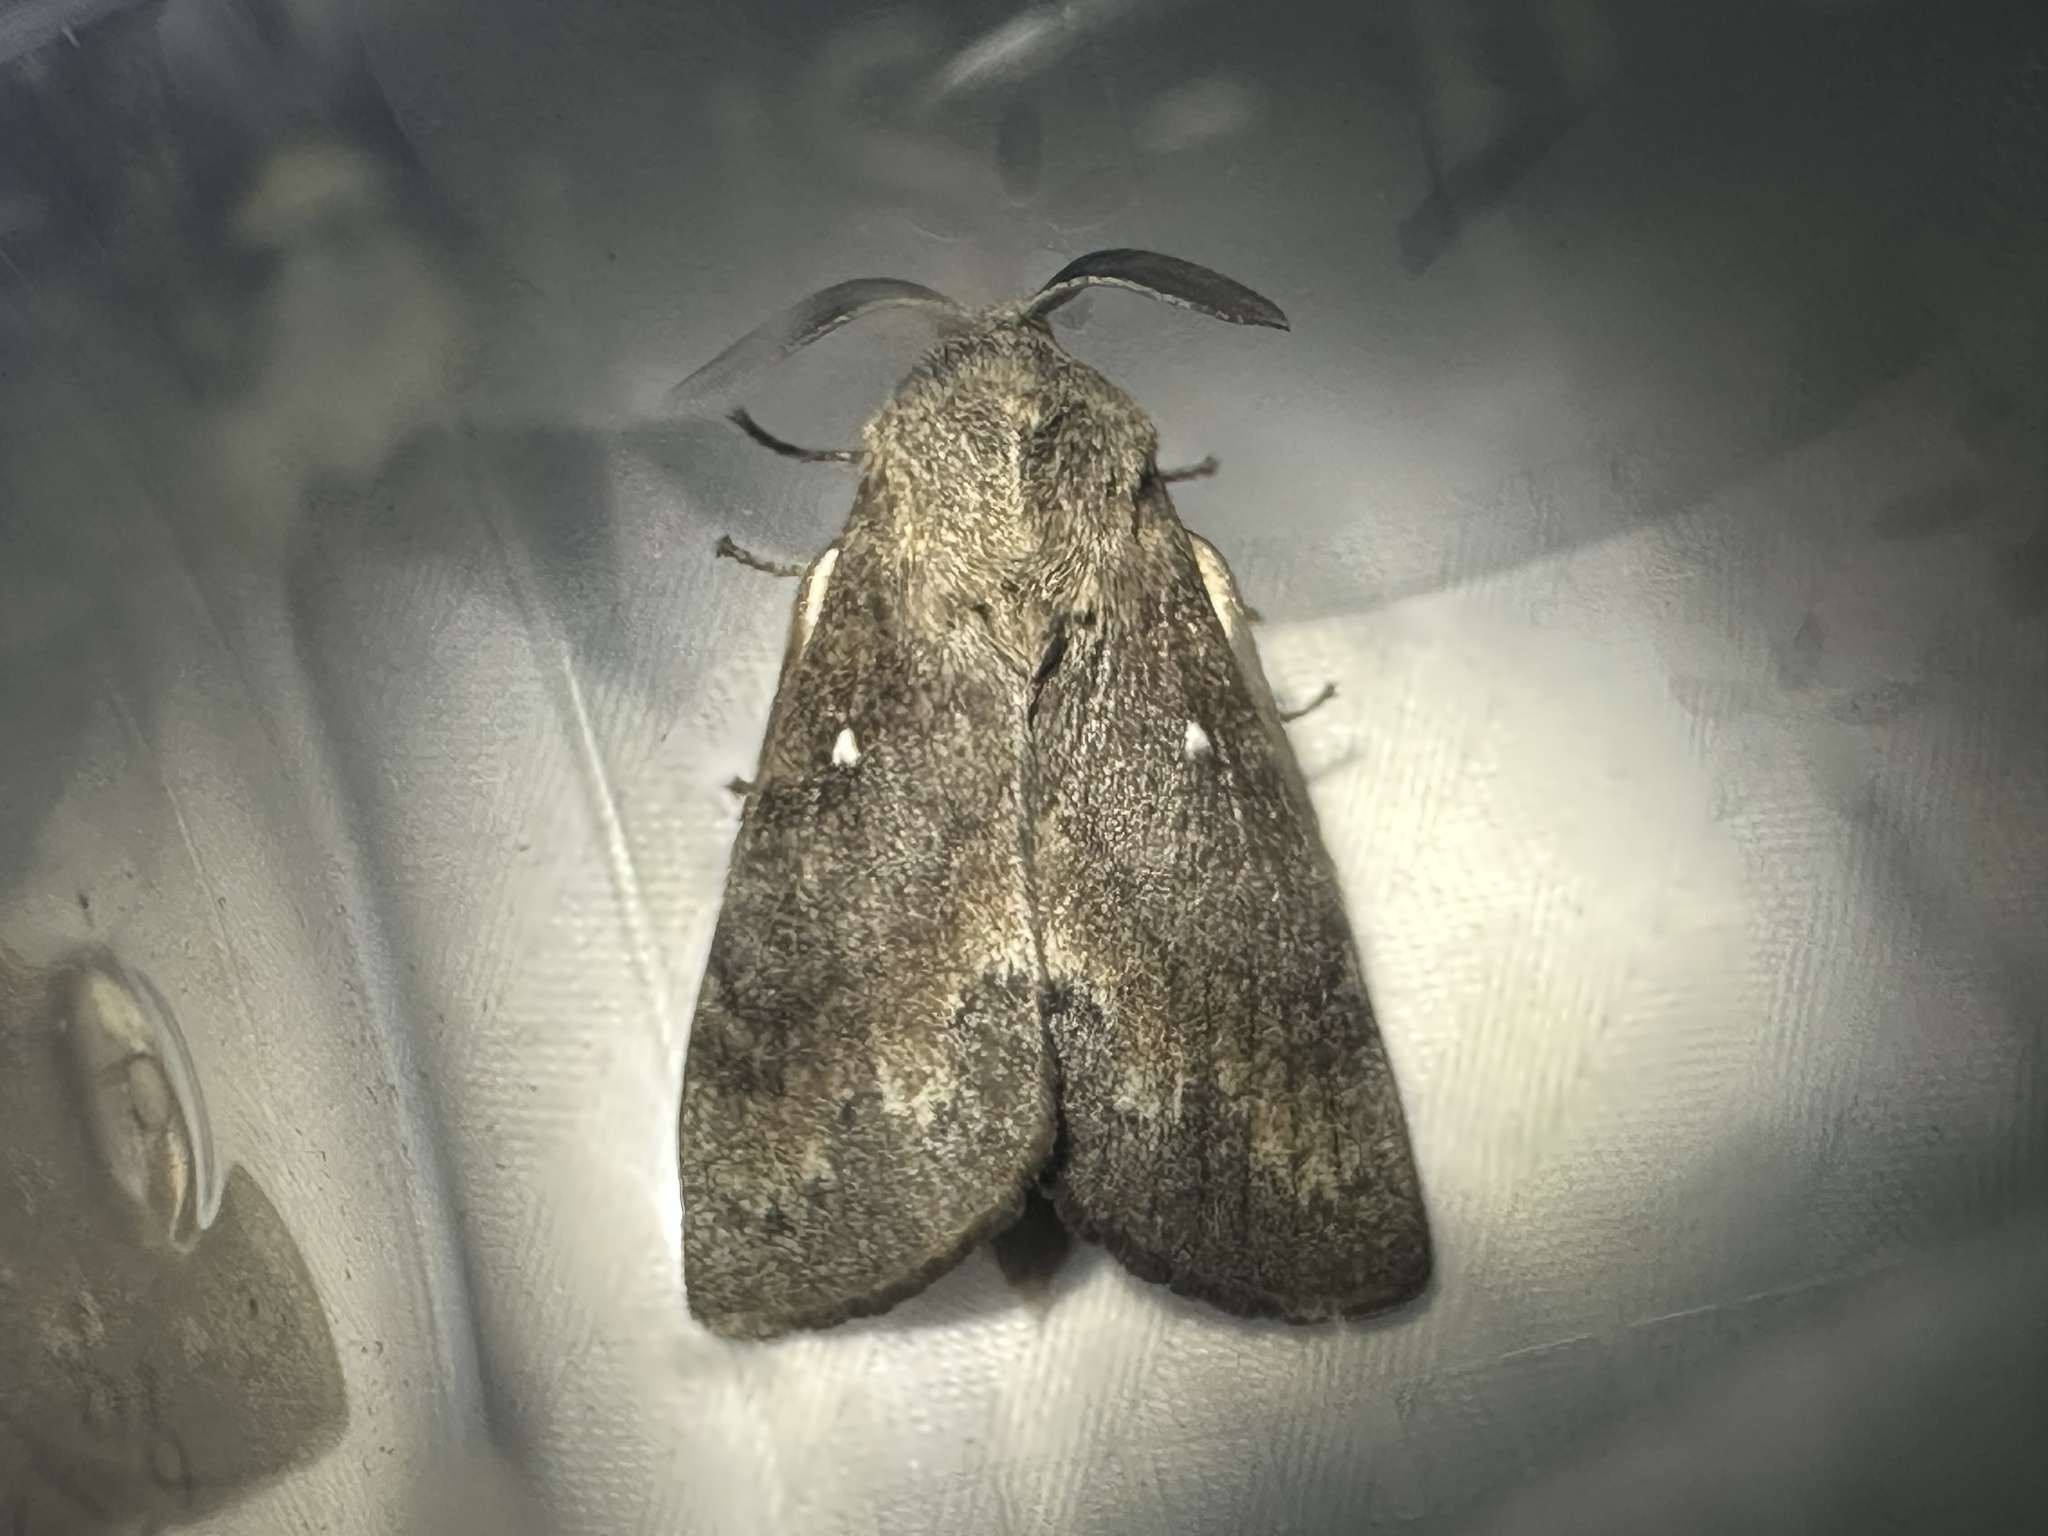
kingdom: Animalia
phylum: Arthropoda
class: Insecta
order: Lepidoptera
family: Lasiocampidae
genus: Dendrolimus
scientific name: Dendrolimus pini
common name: Pine-tree lappet
